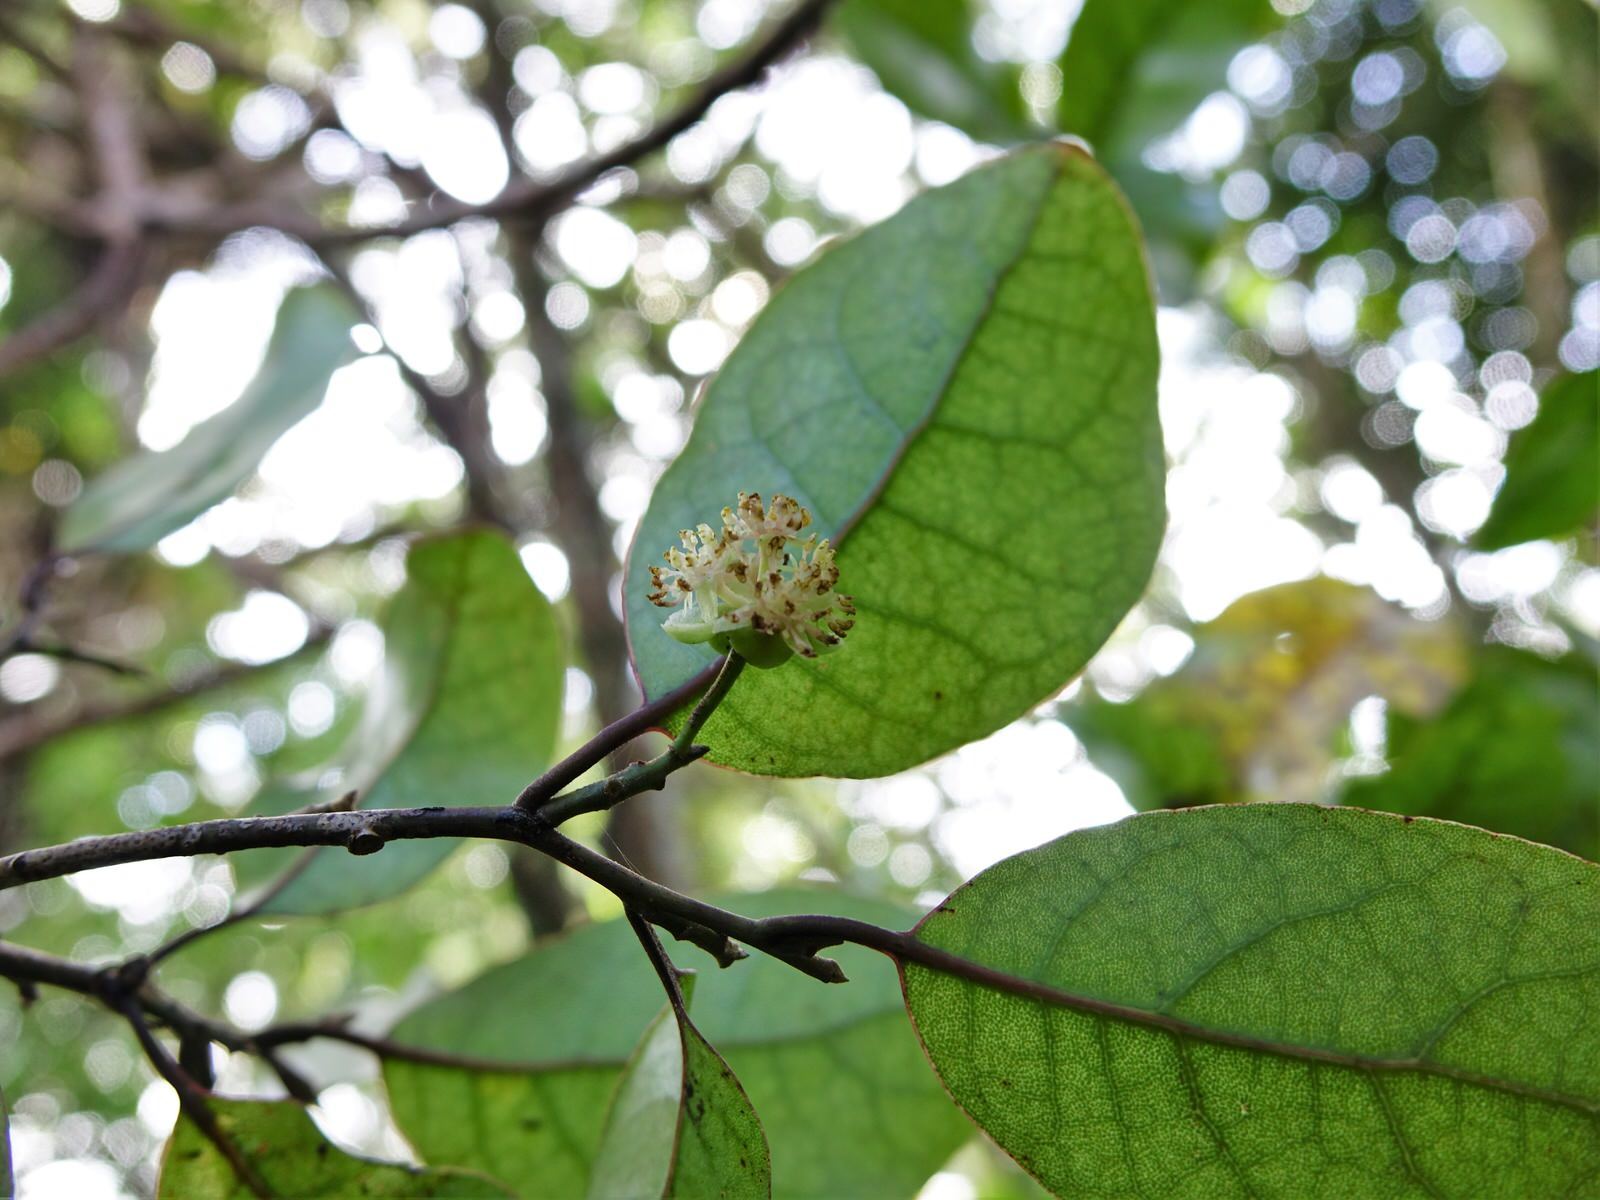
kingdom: Plantae
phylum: Tracheophyta
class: Magnoliopsida
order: Laurales
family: Lauraceae
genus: Litsea
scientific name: Litsea calicaris
